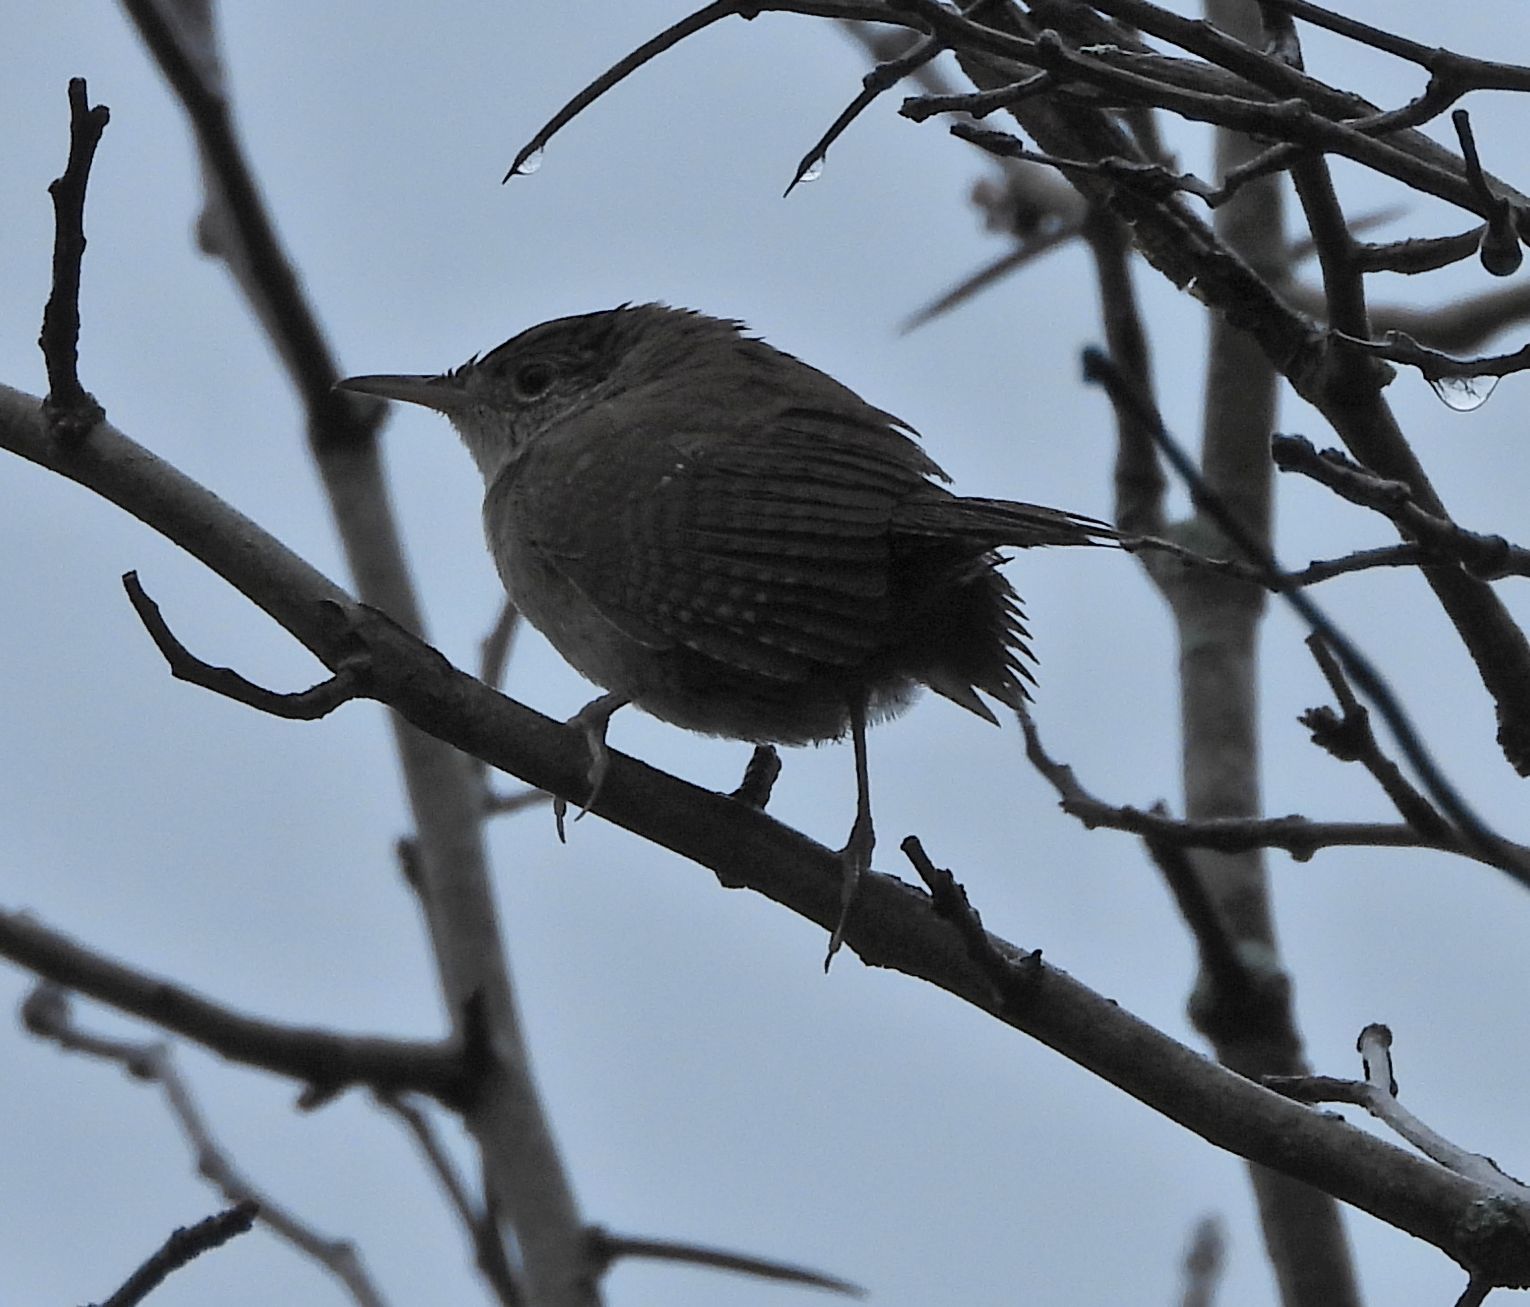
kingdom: Animalia
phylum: Chordata
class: Aves
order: Passeriformes
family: Troglodytidae
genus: Troglodytes
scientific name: Troglodytes aedon
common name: House wren
